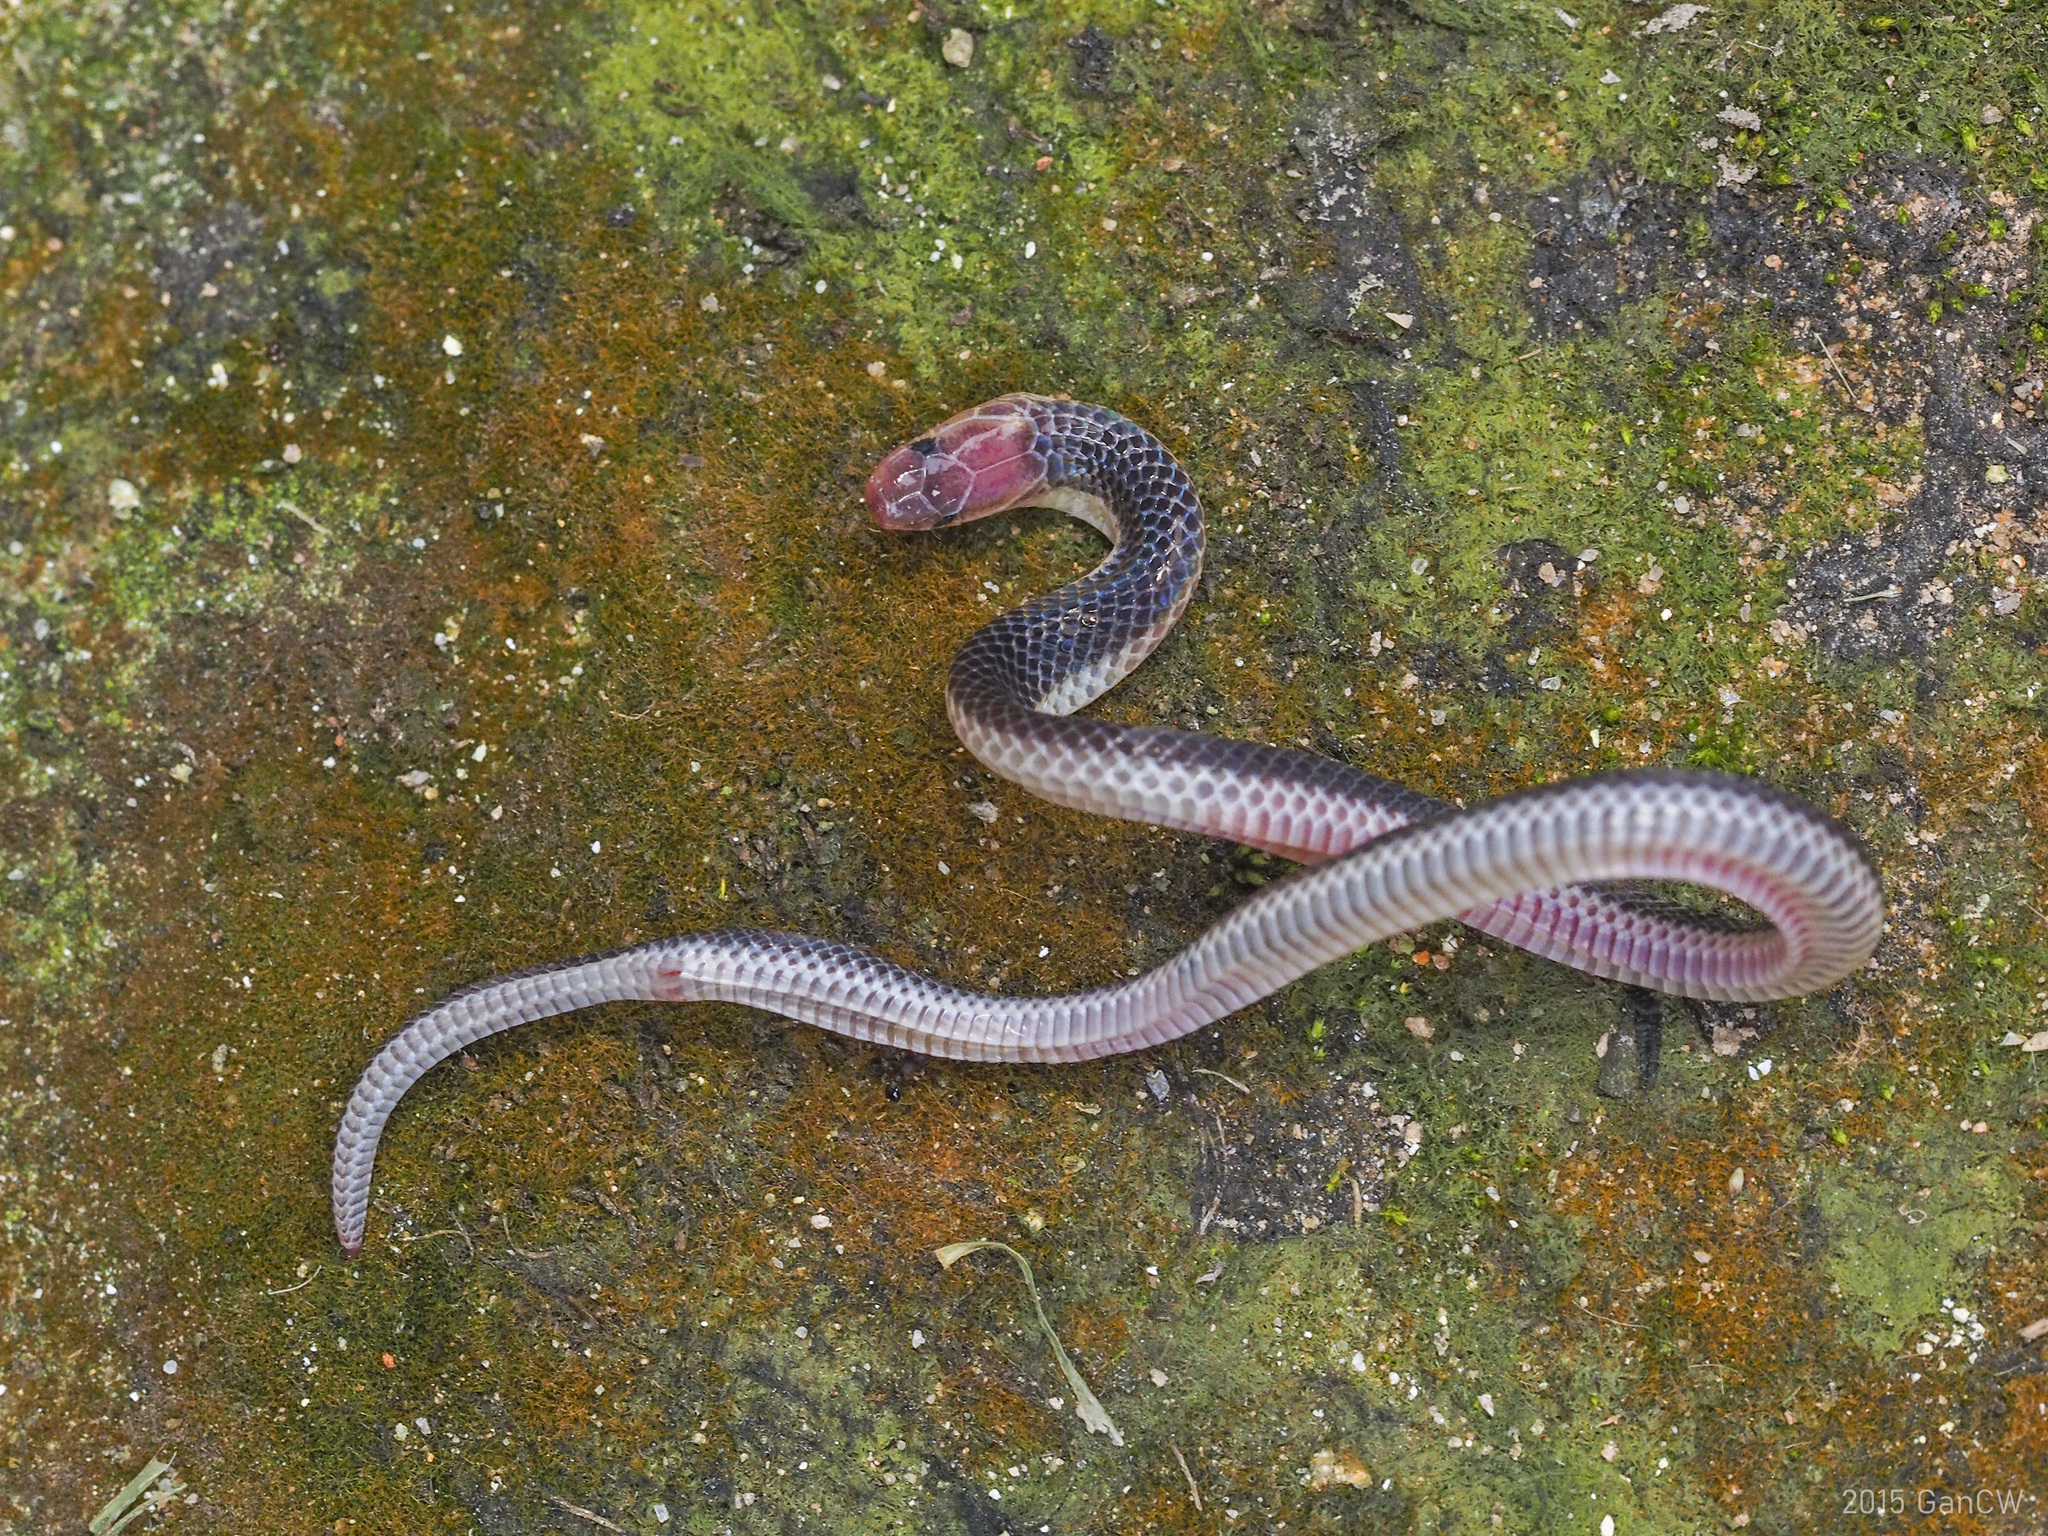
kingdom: Animalia
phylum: Chordata
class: Squamata
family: Colubridae
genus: Calamaria
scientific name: Calamaria schlegeli
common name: Red-headed reed snake
